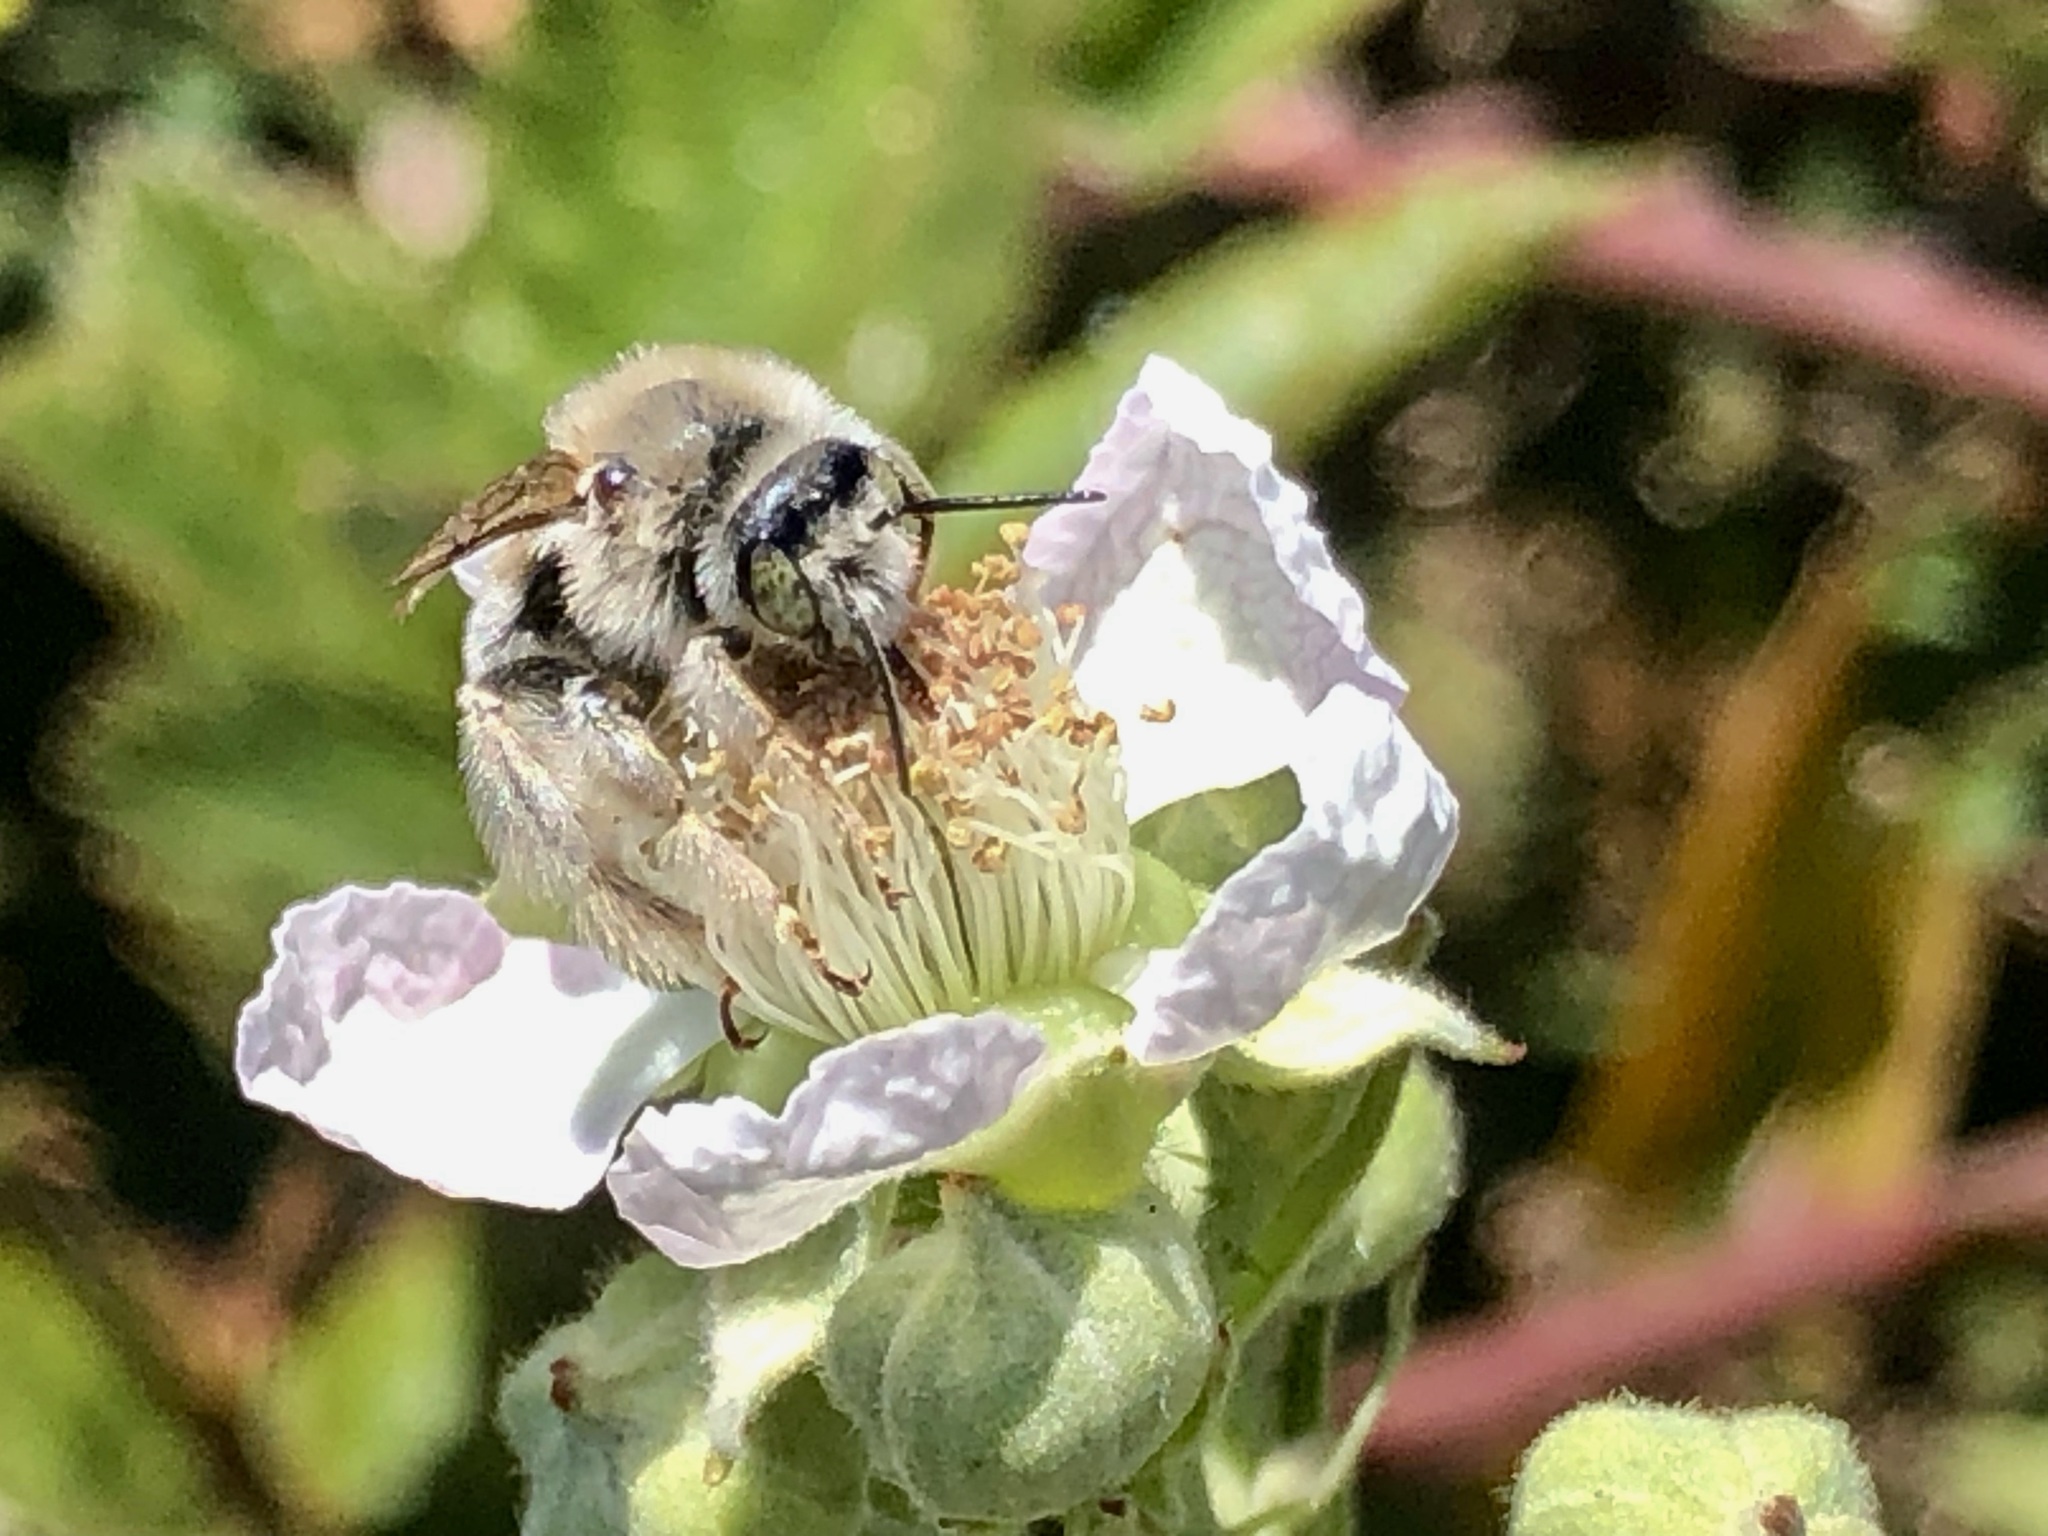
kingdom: Animalia
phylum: Arthropoda
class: Insecta
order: Hymenoptera
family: Apidae
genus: Diadasia
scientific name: Diadasia
